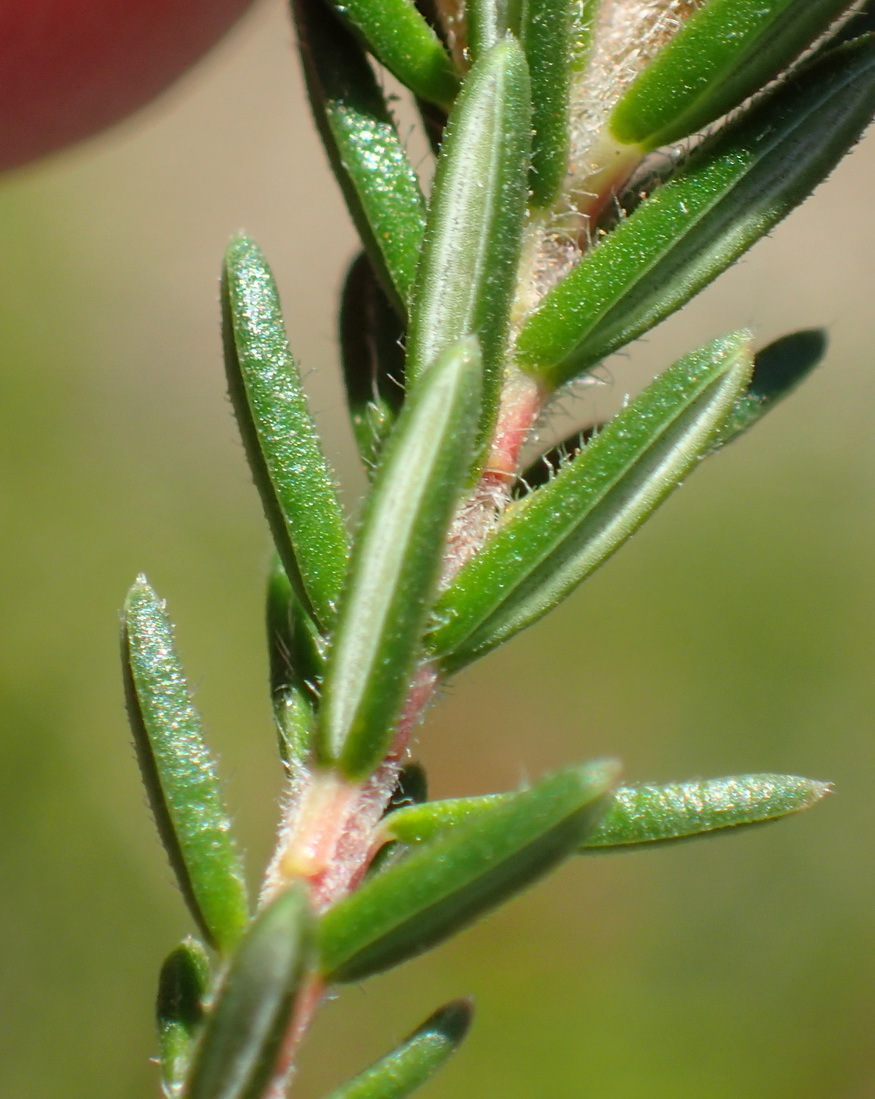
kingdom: Plantae
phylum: Tracheophyta
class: Magnoliopsida
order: Ericales
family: Ericaceae
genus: Erica
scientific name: Erica discolor
